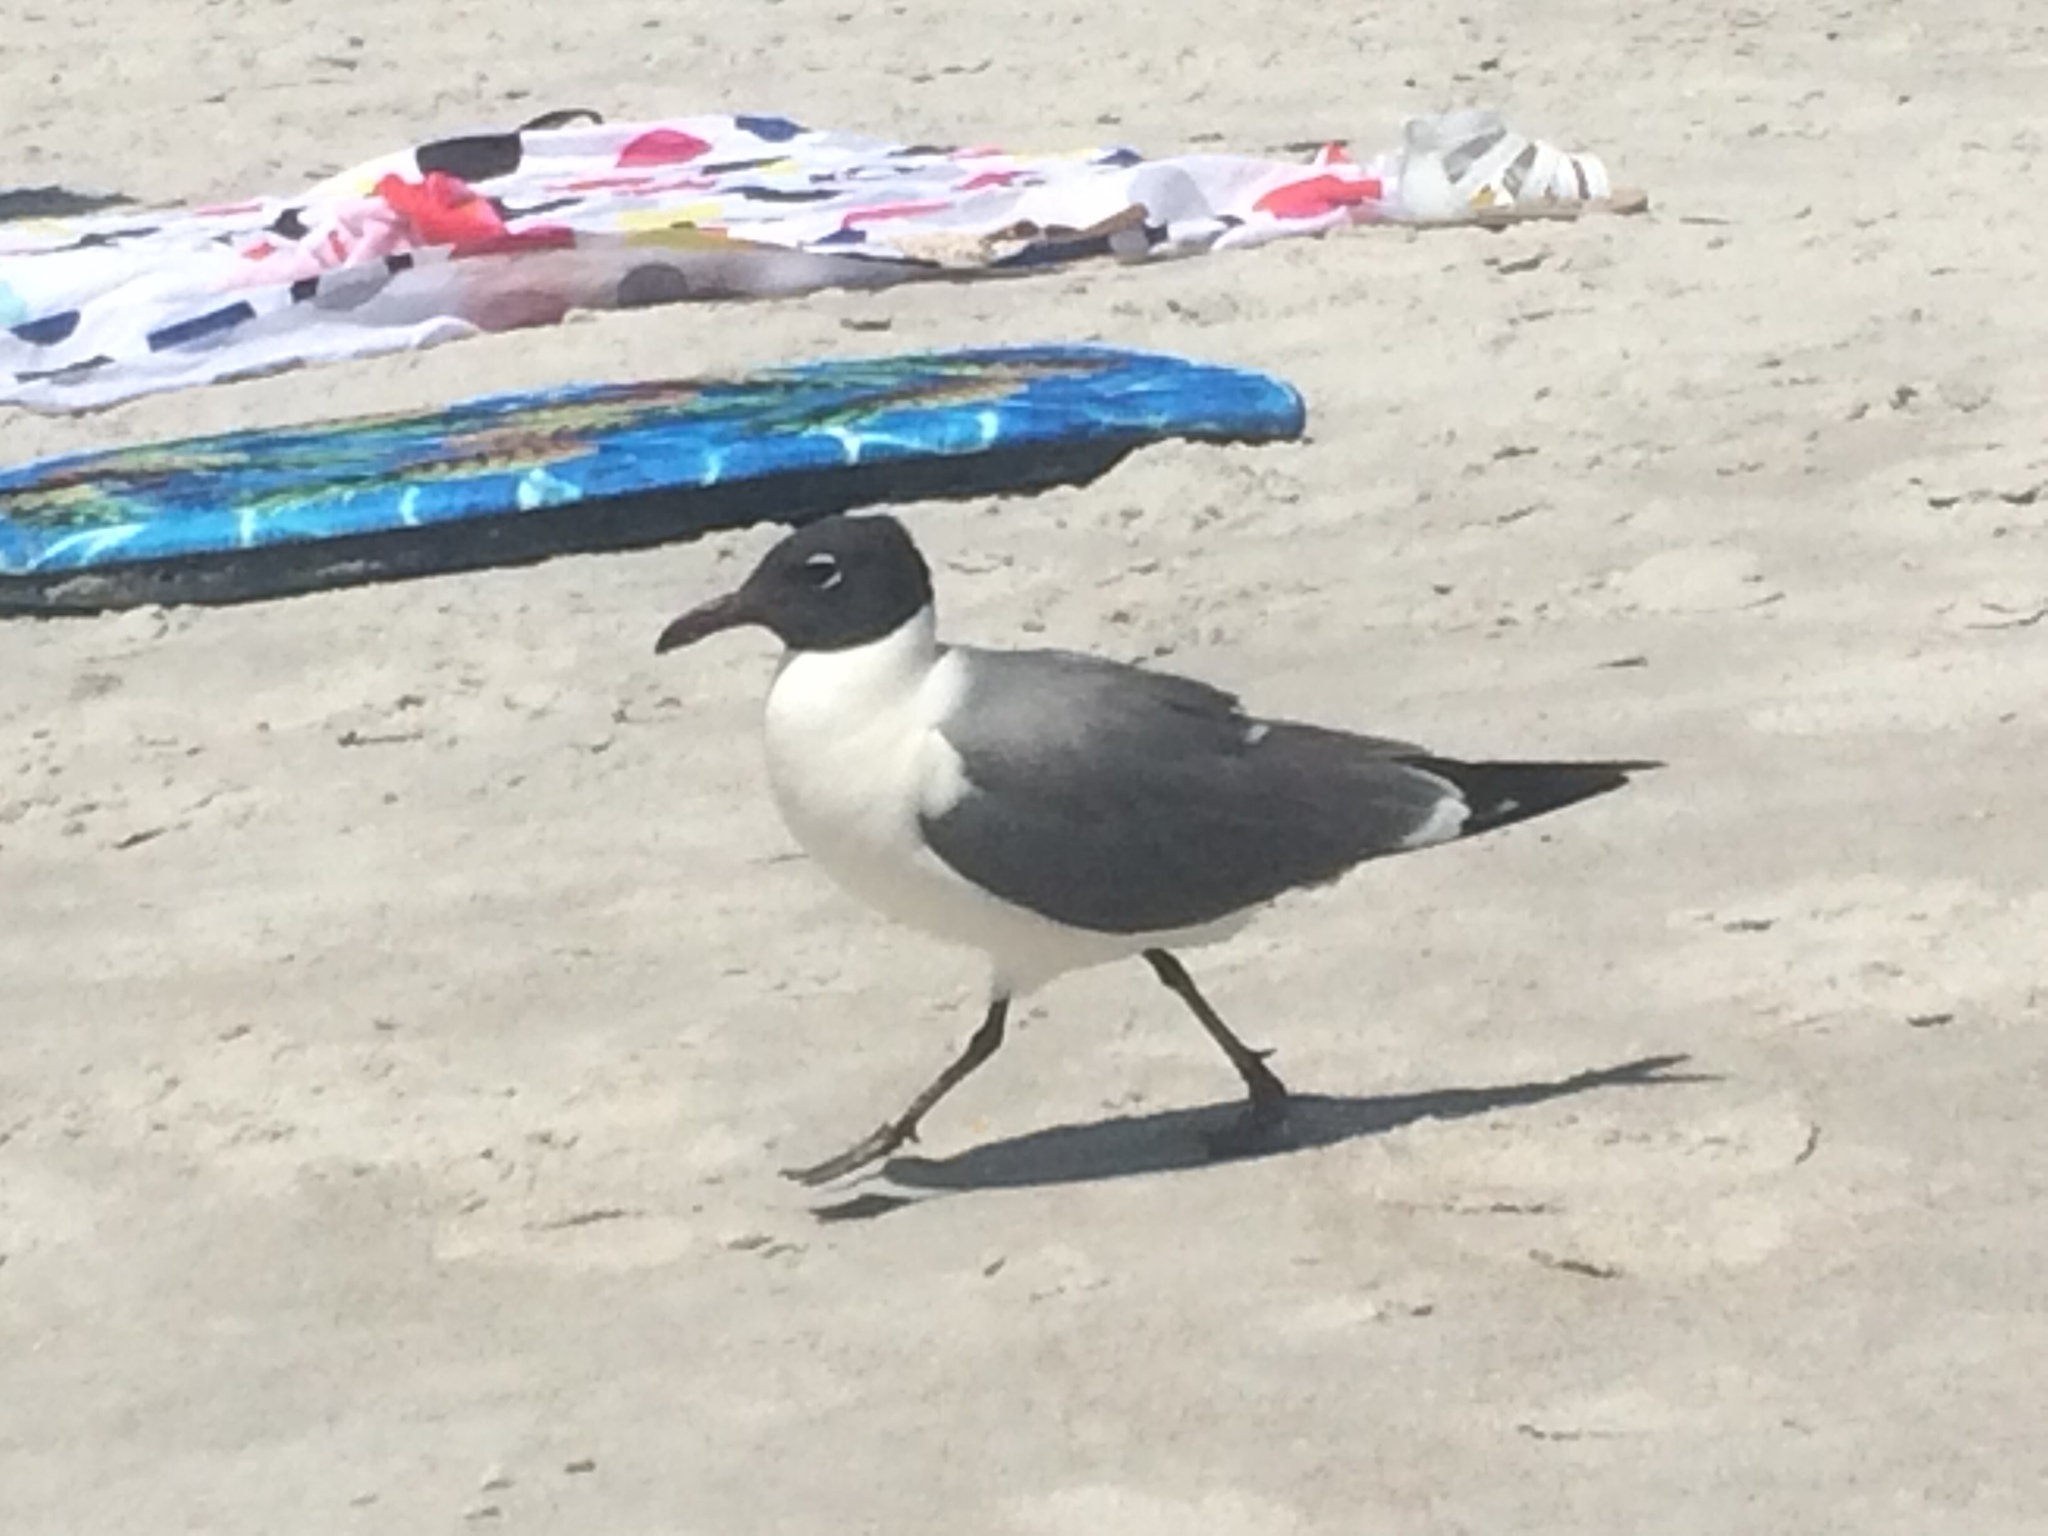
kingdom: Animalia
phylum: Chordata
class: Aves
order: Charadriiformes
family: Laridae
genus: Leucophaeus
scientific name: Leucophaeus atricilla
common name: Laughing gull
